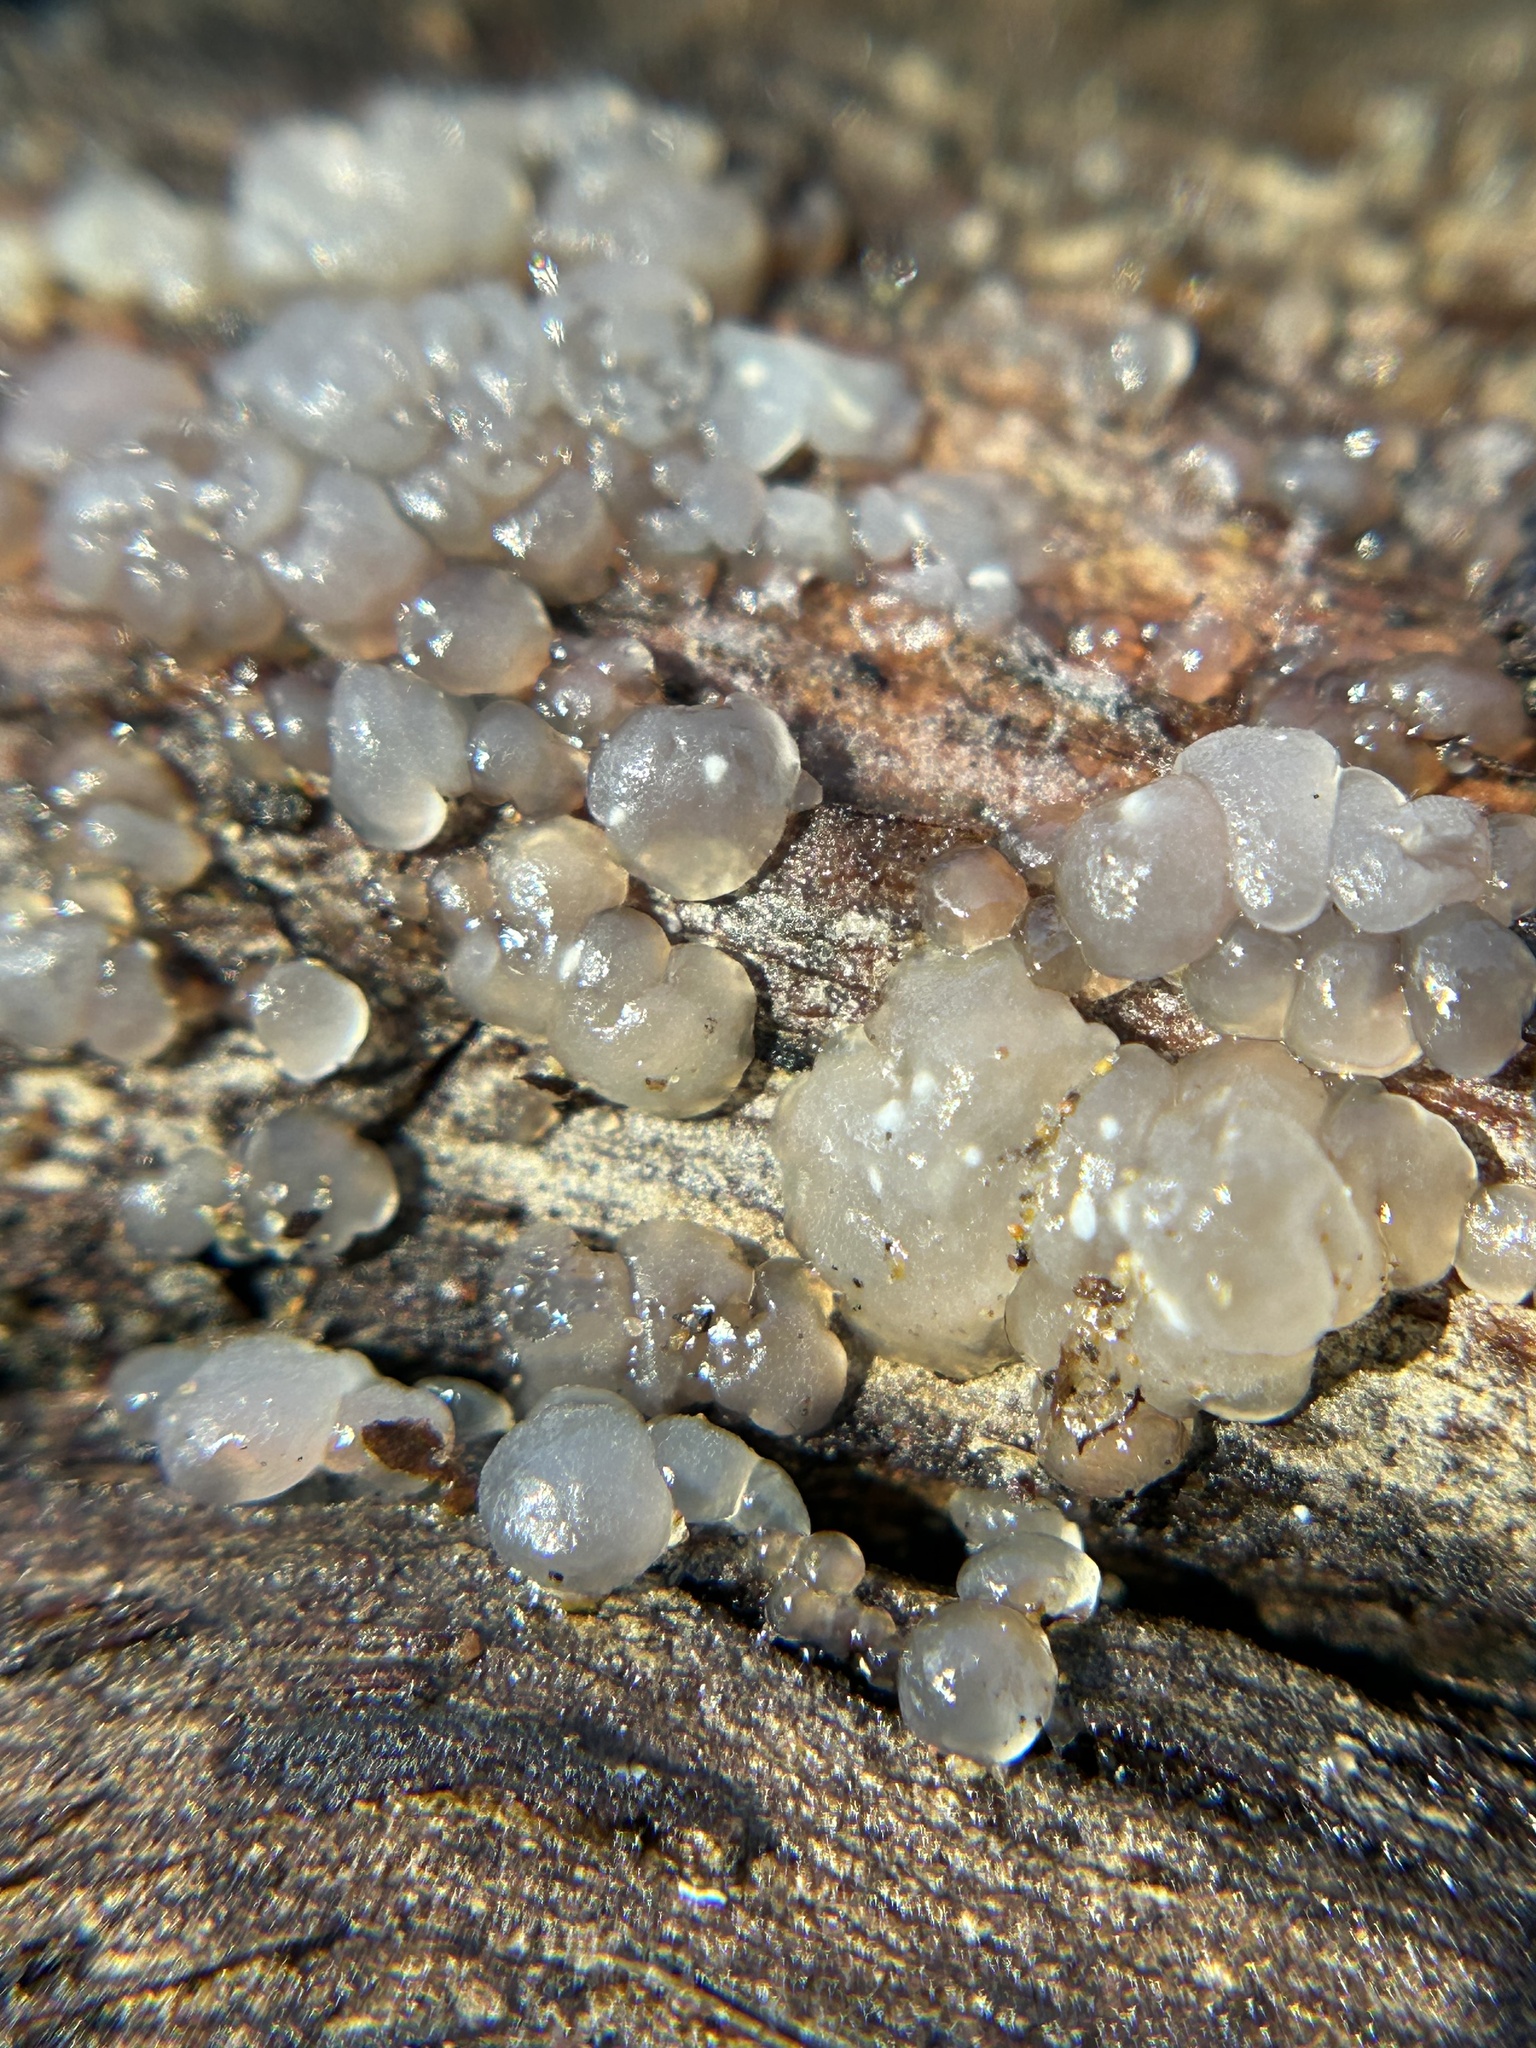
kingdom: Fungi
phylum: Basidiomycota
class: Agaricomycetes
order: Auriculariales
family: Hyaloriaceae
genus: Myxarium
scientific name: Myxarium nucleatum
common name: Crystal brain fungus
